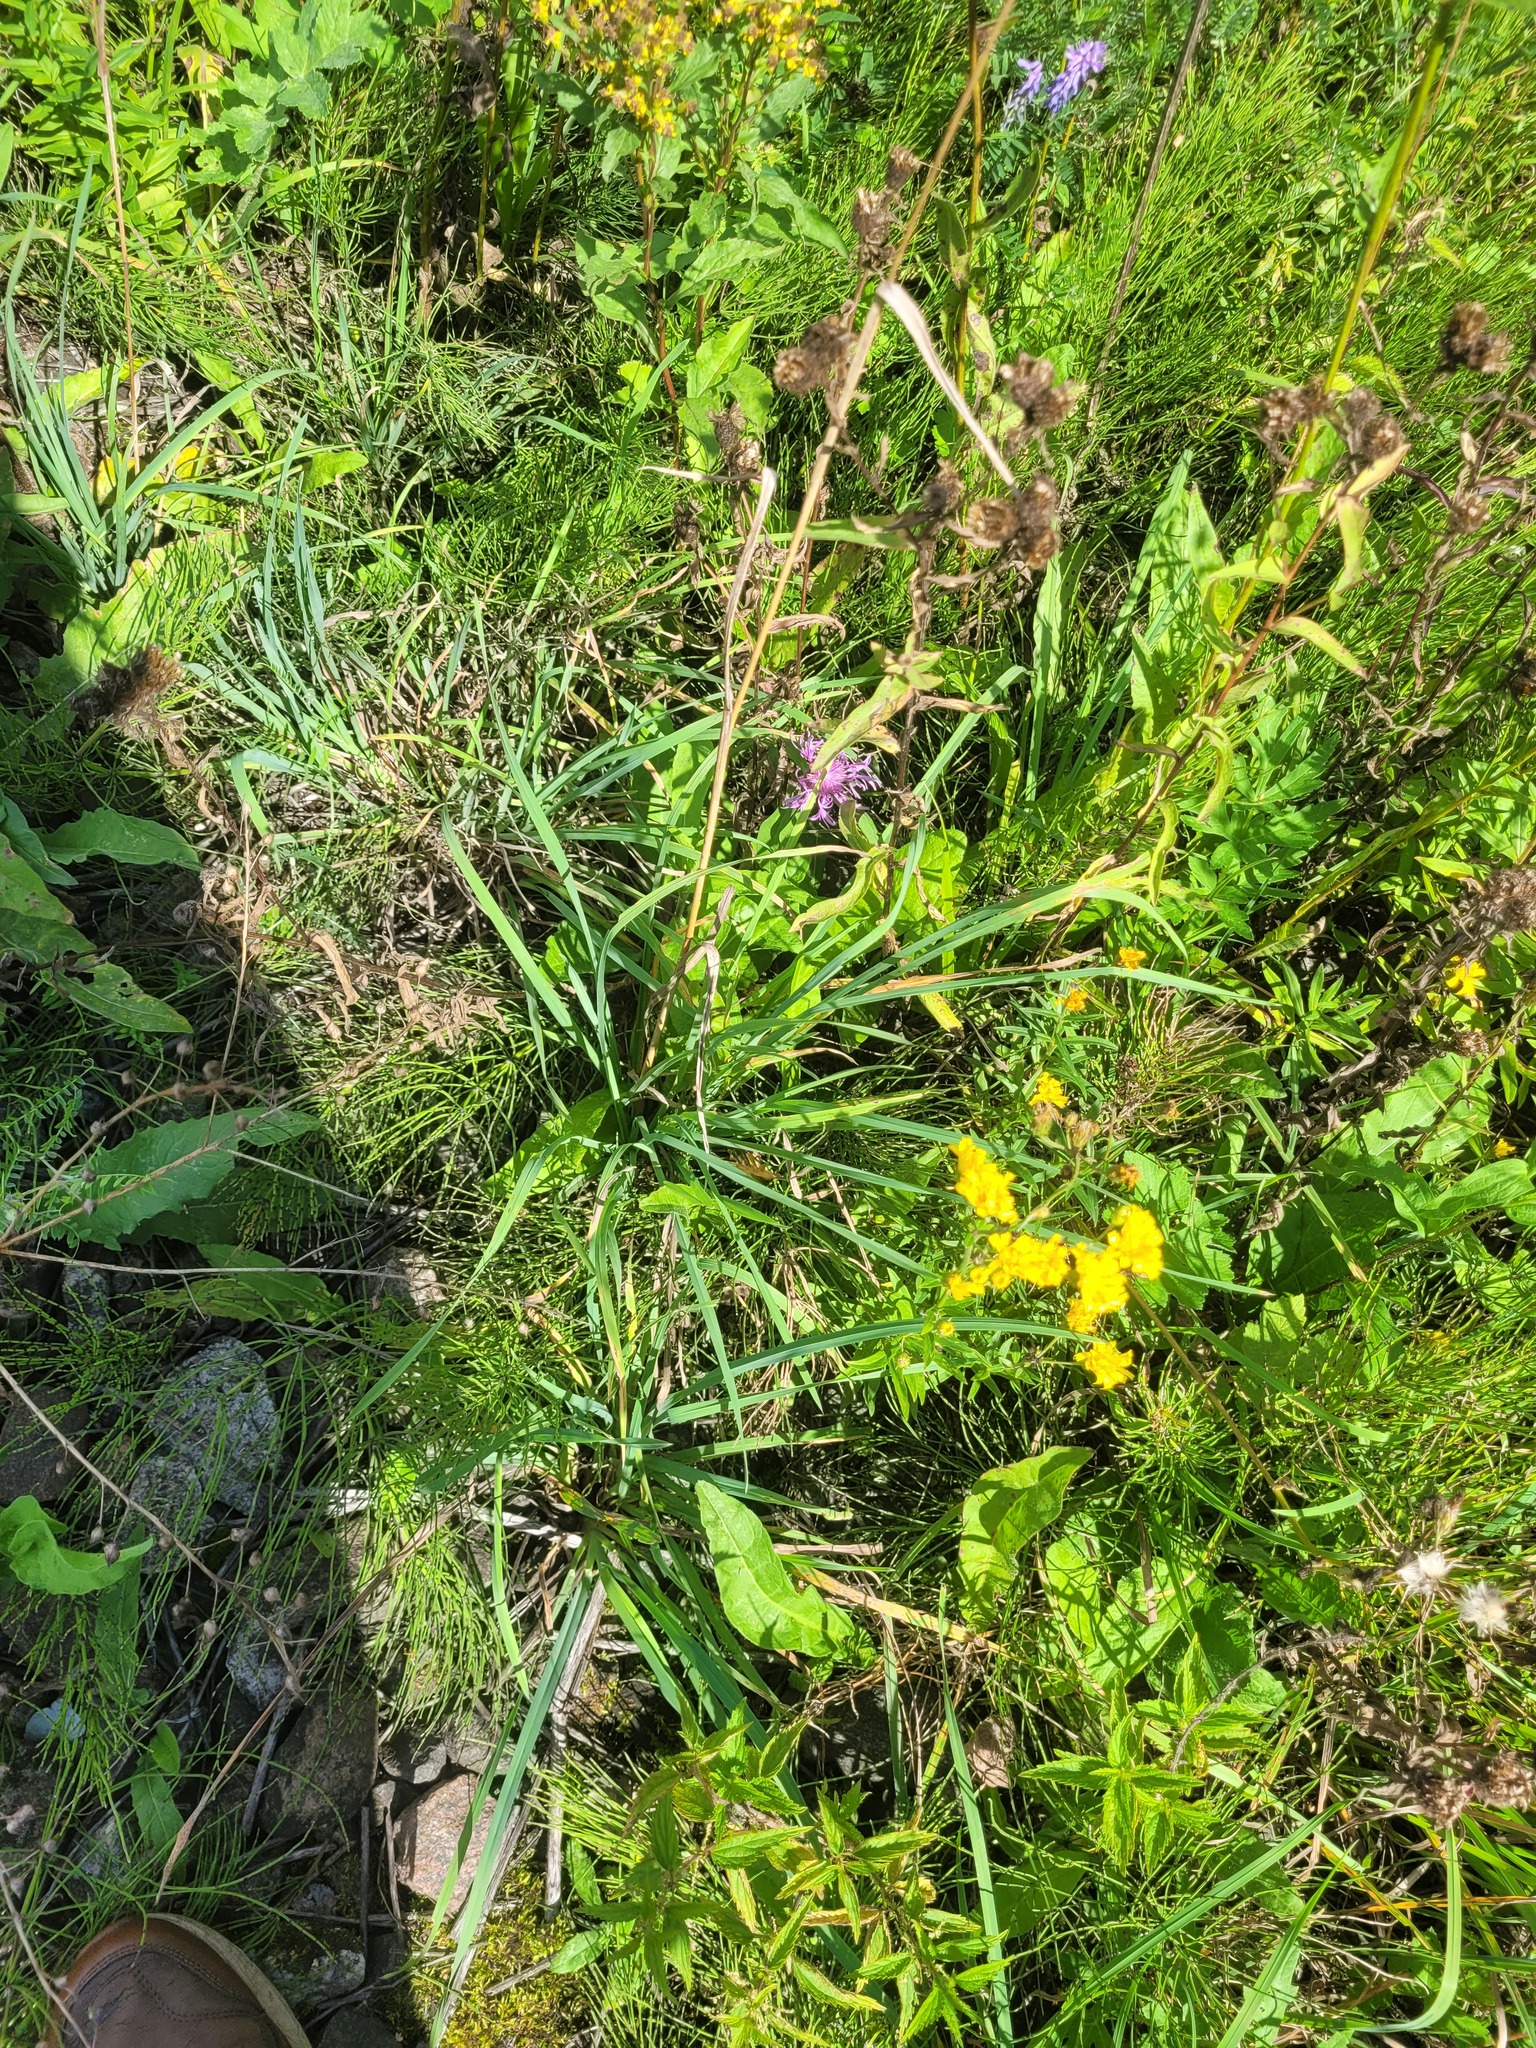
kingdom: Plantae
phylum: Tracheophyta
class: Liliopsida
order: Poales
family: Poaceae
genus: Dactylis
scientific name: Dactylis glomerata
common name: Orchardgrass
